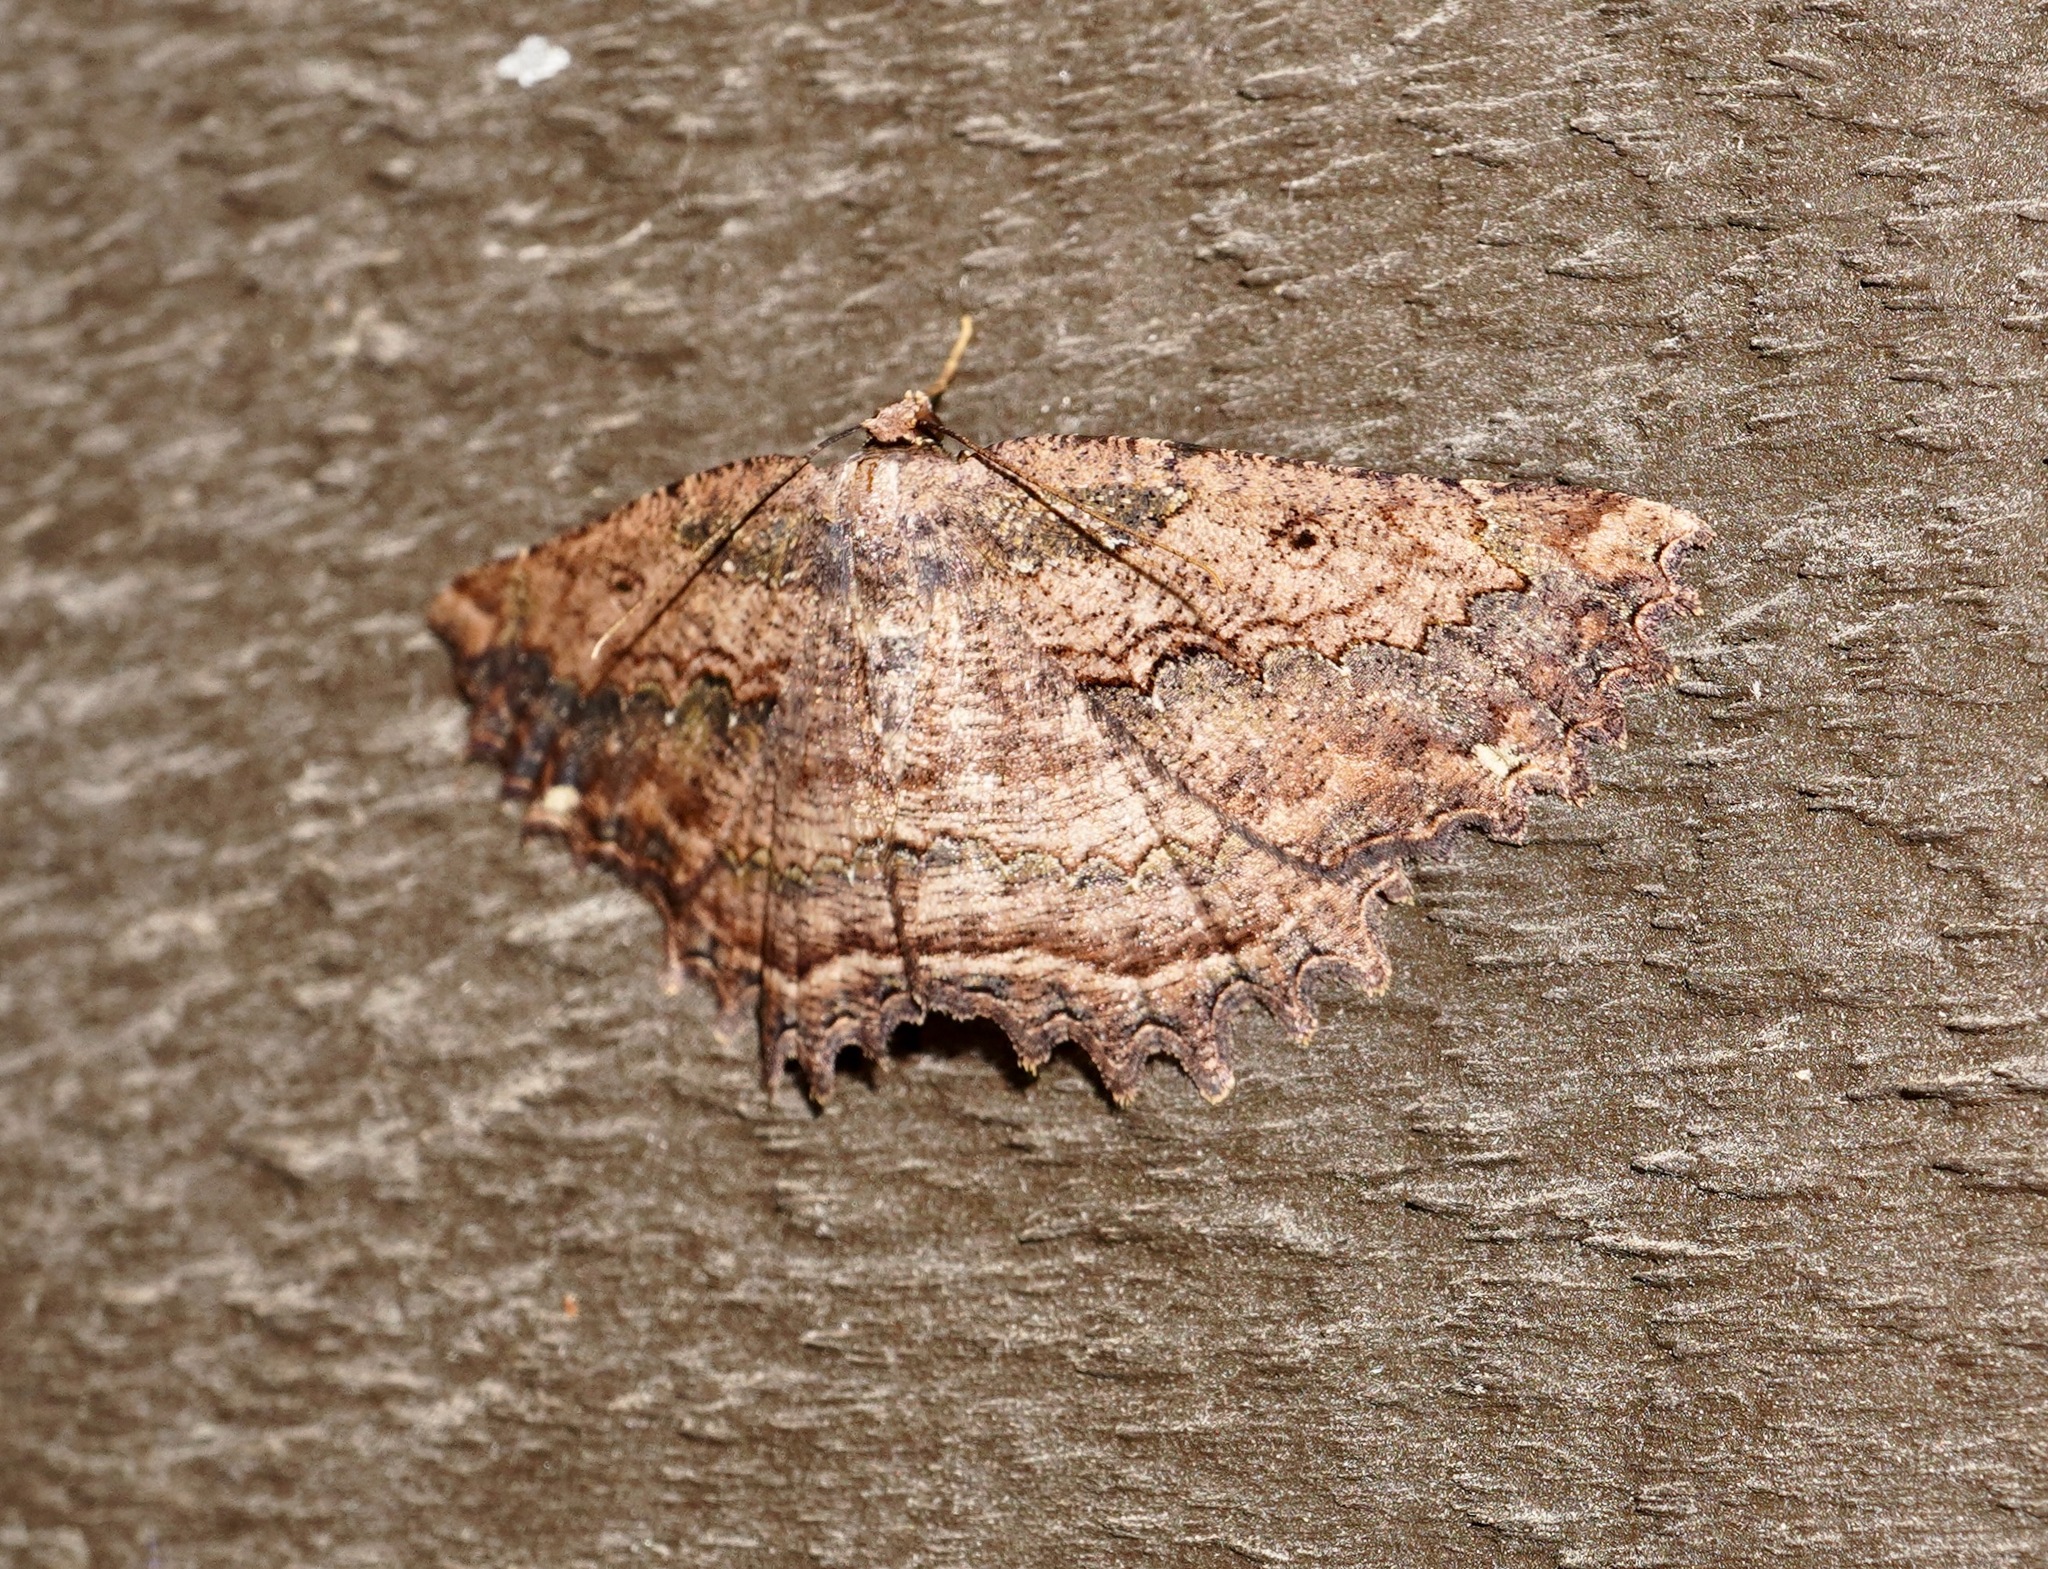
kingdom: Animalia
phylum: Arthropoda
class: Insecta
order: Lepidoptera
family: Geometridae
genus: Gellonia
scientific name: Gellonia pannularia
